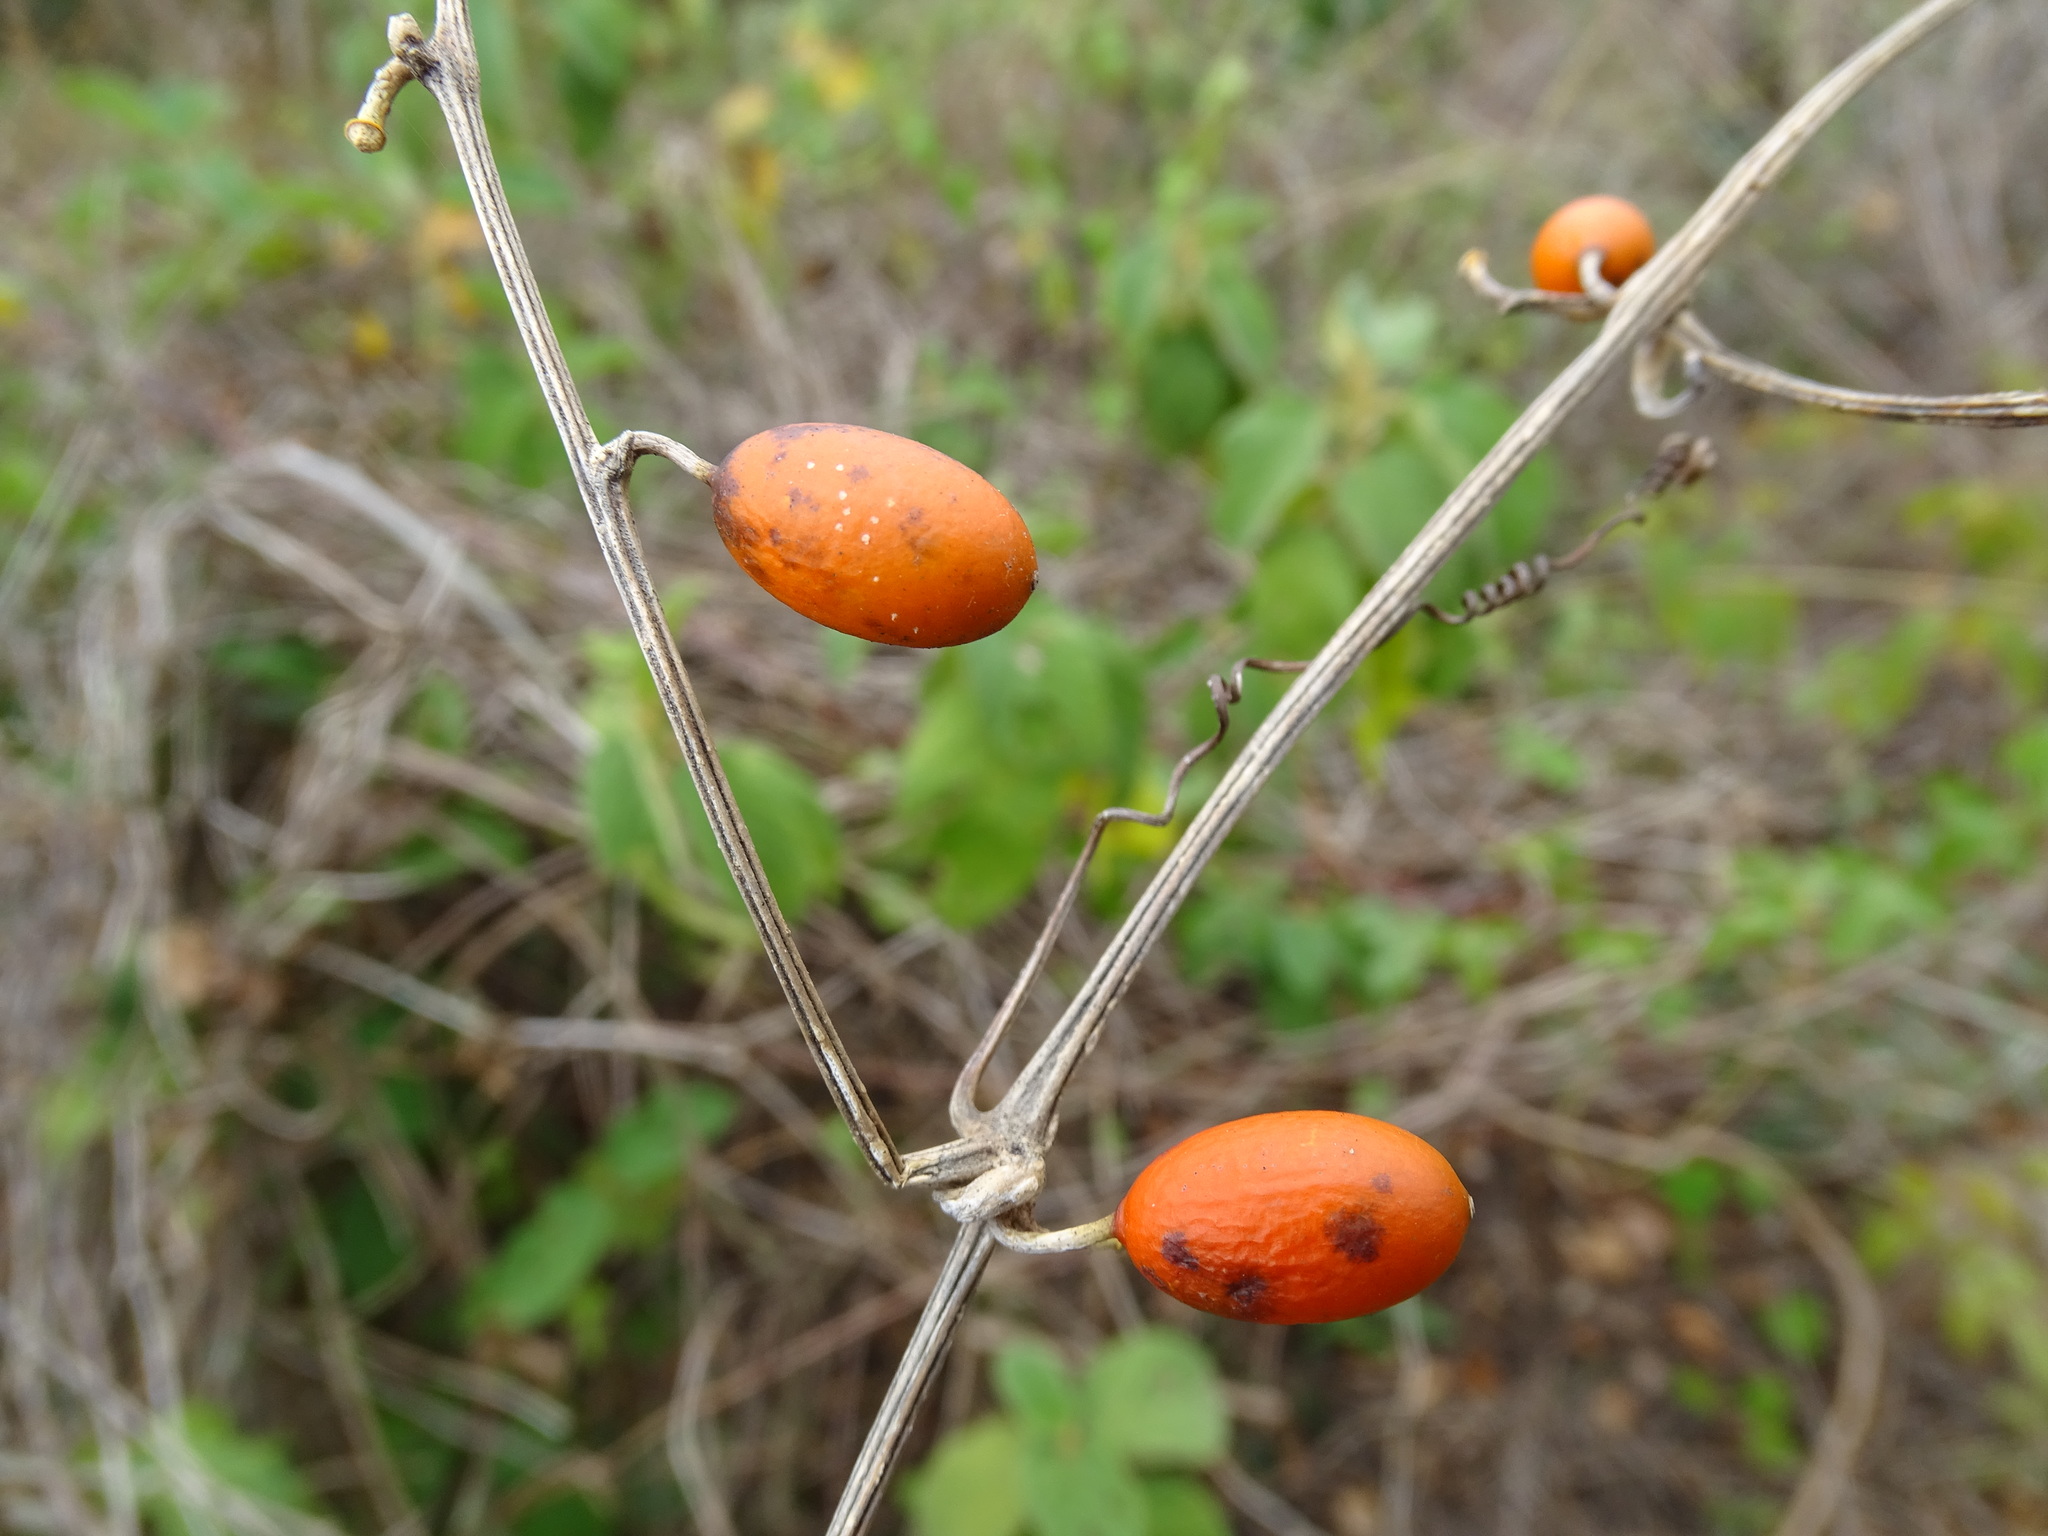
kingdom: Plantae
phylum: Tracheophyta
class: Magnoliopsida
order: Cucurbitales
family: Cucurbitaceae
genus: Cayaponia
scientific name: Cayaponia racemosa
